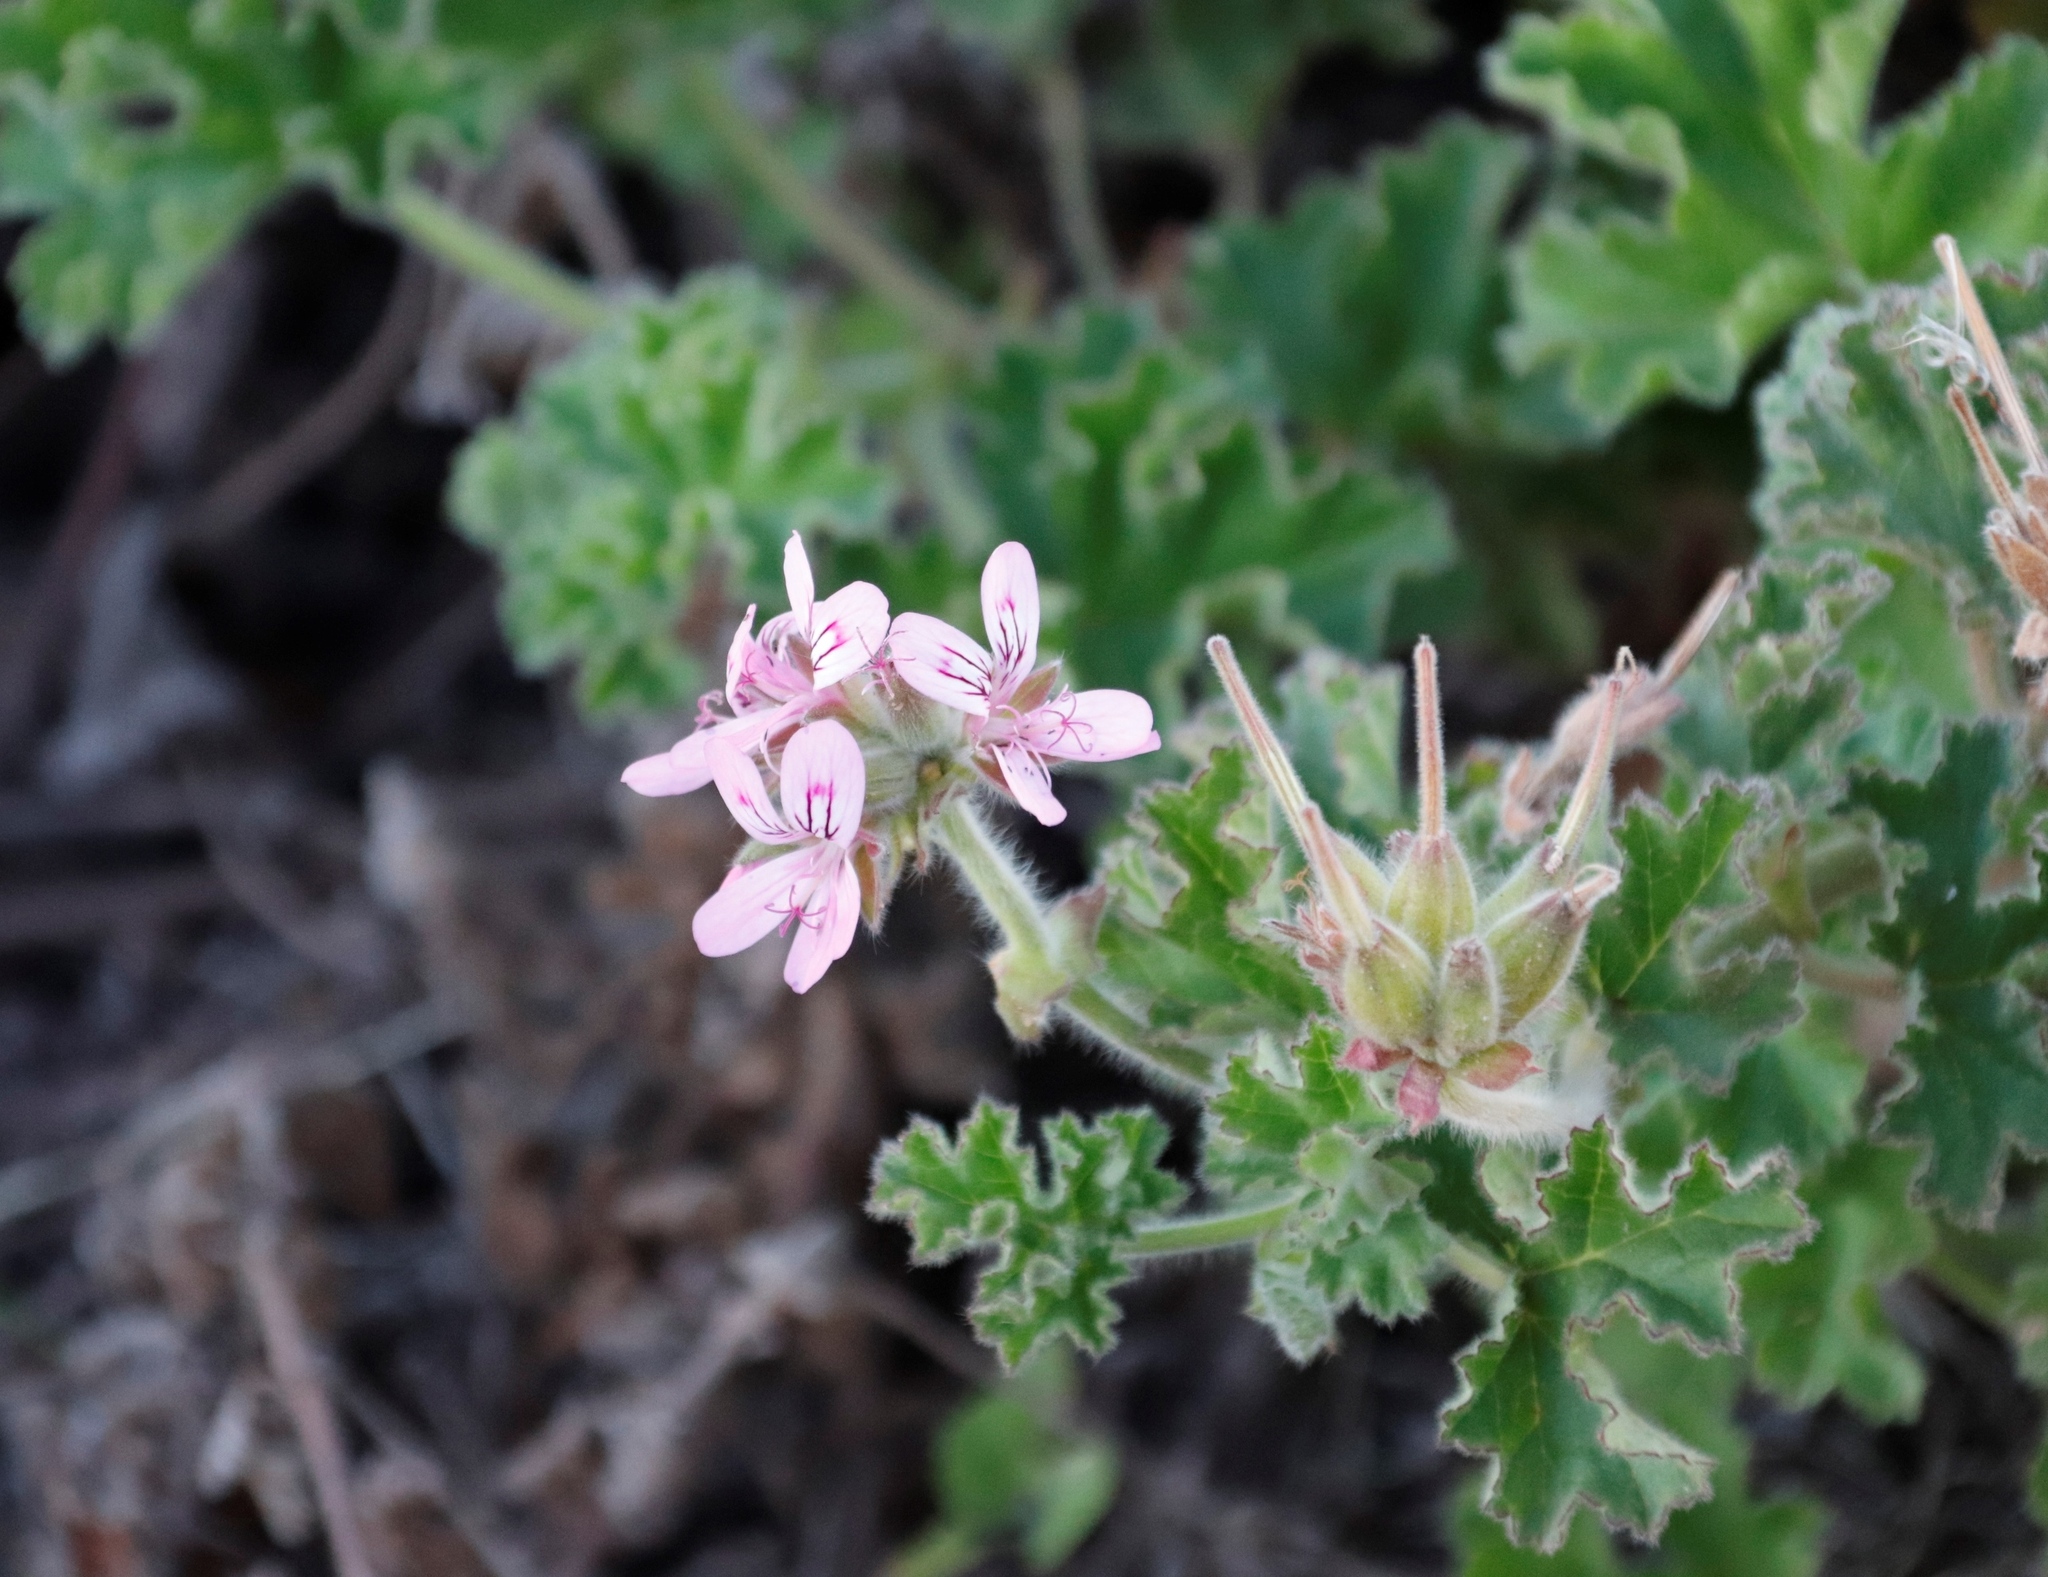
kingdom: Plantae
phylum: Tracheophyta
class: Magnoliopsida
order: Geraniales
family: Geraniaceae
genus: Pelargonium
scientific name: Pelargonium capitatum
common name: Rose scented geranium
